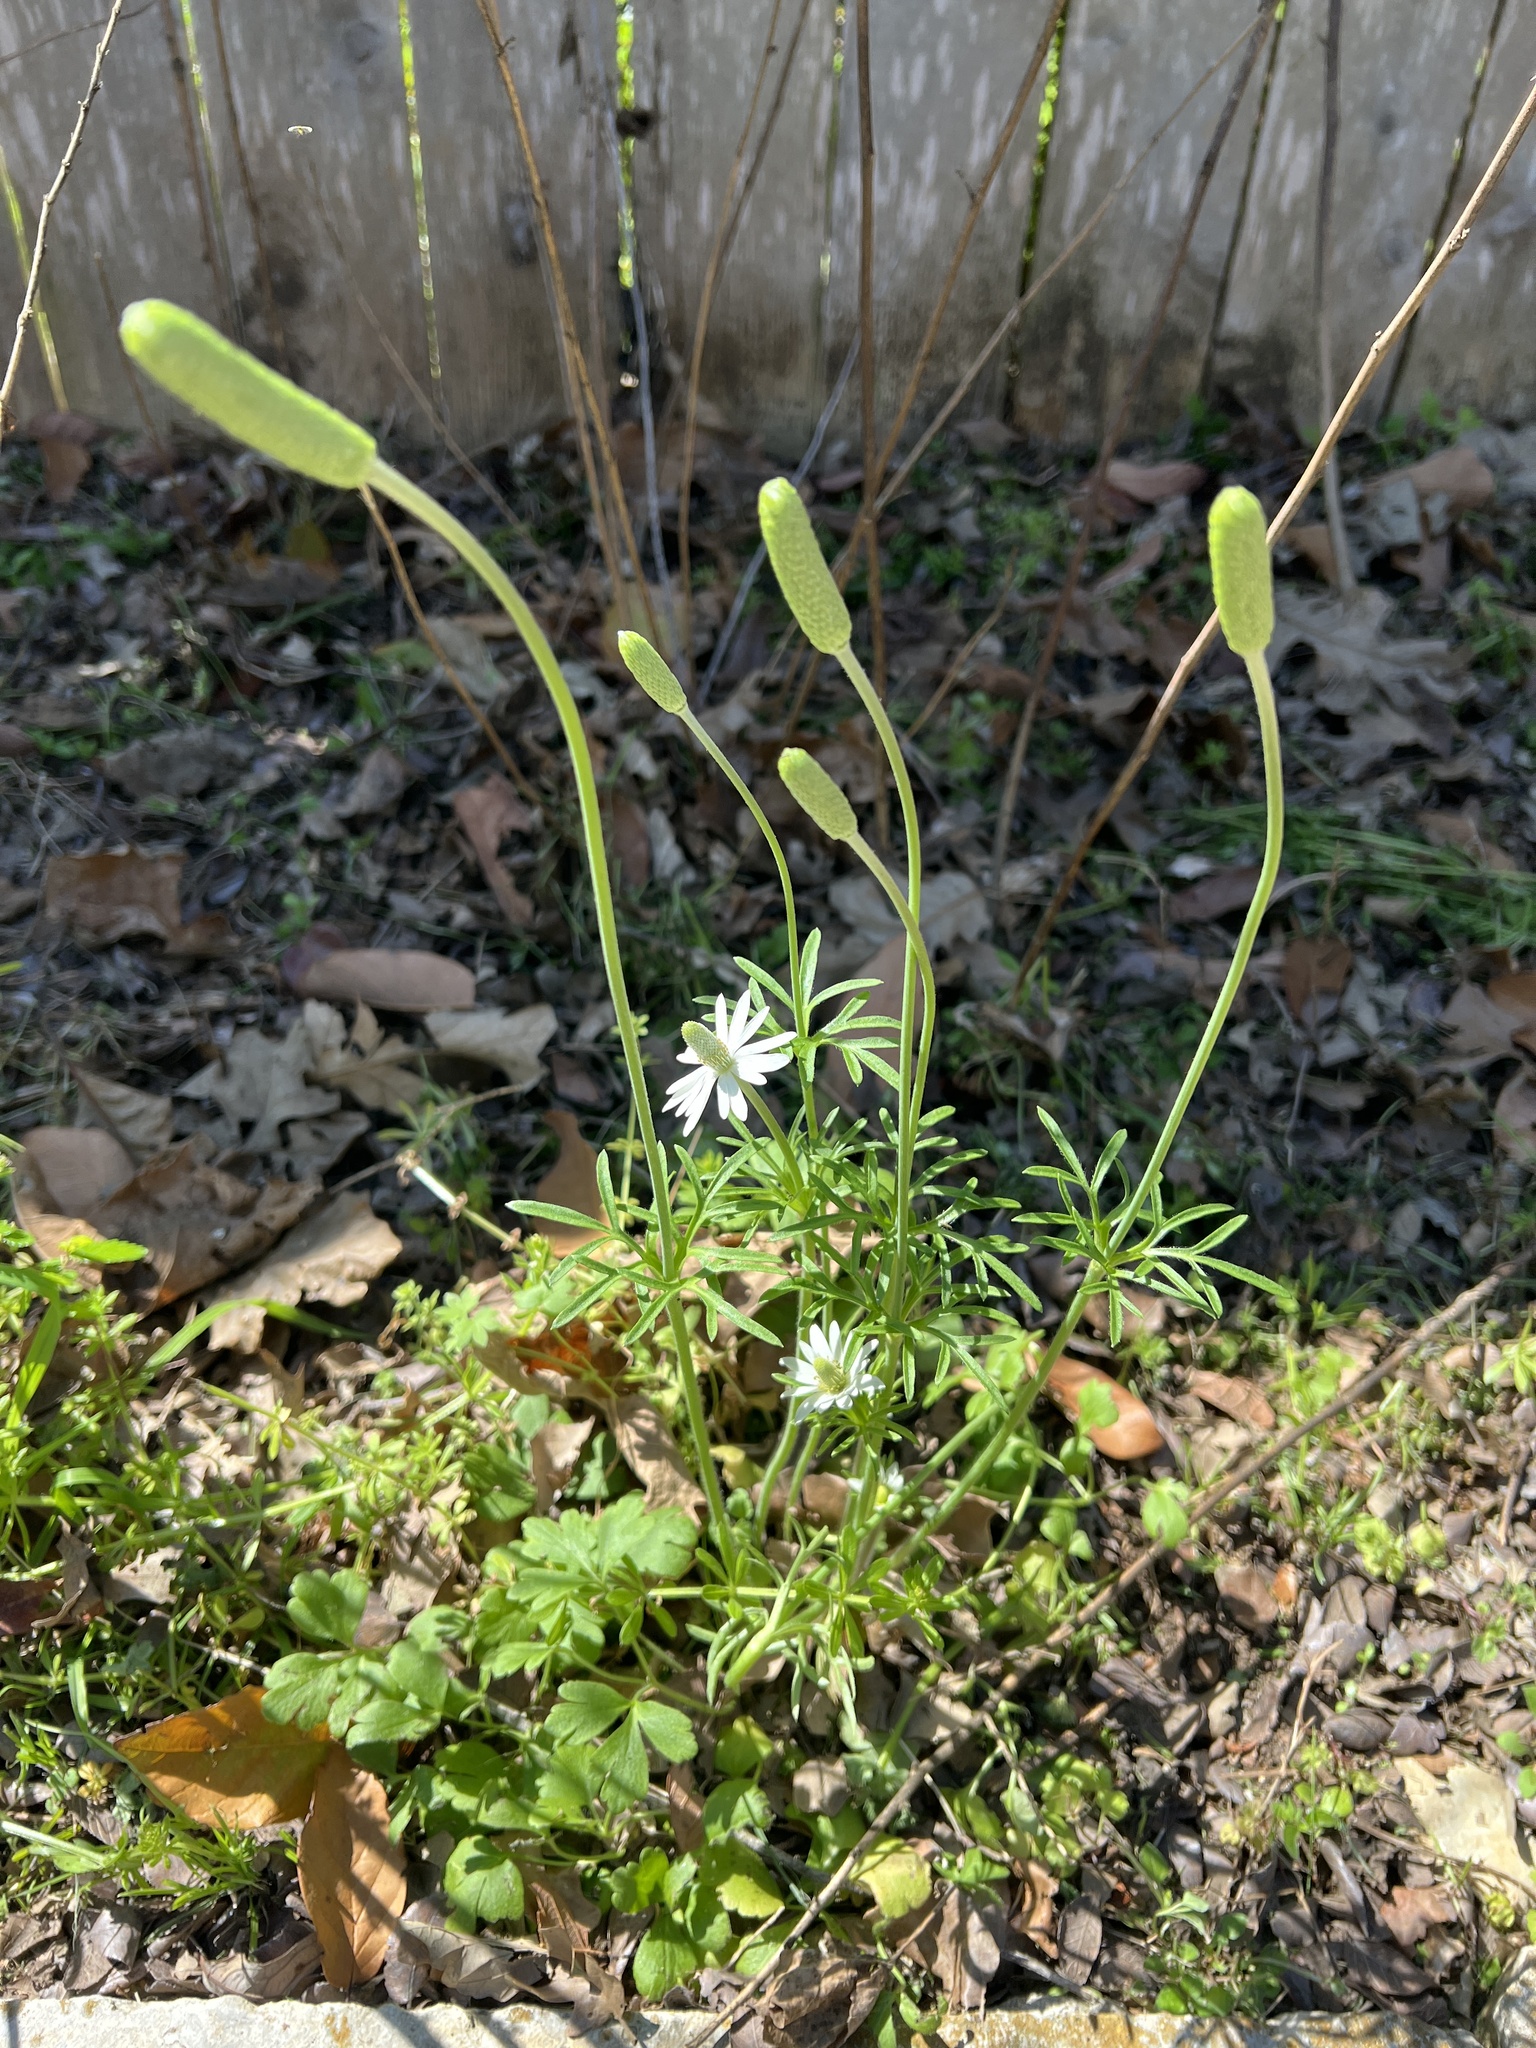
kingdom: Plantae
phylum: Tracheophyta
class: Magnoliopsida
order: Ranunculales
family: Ranunculaceae
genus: Anemone
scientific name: Anemone berlandieri
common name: Ten-petal anemone
